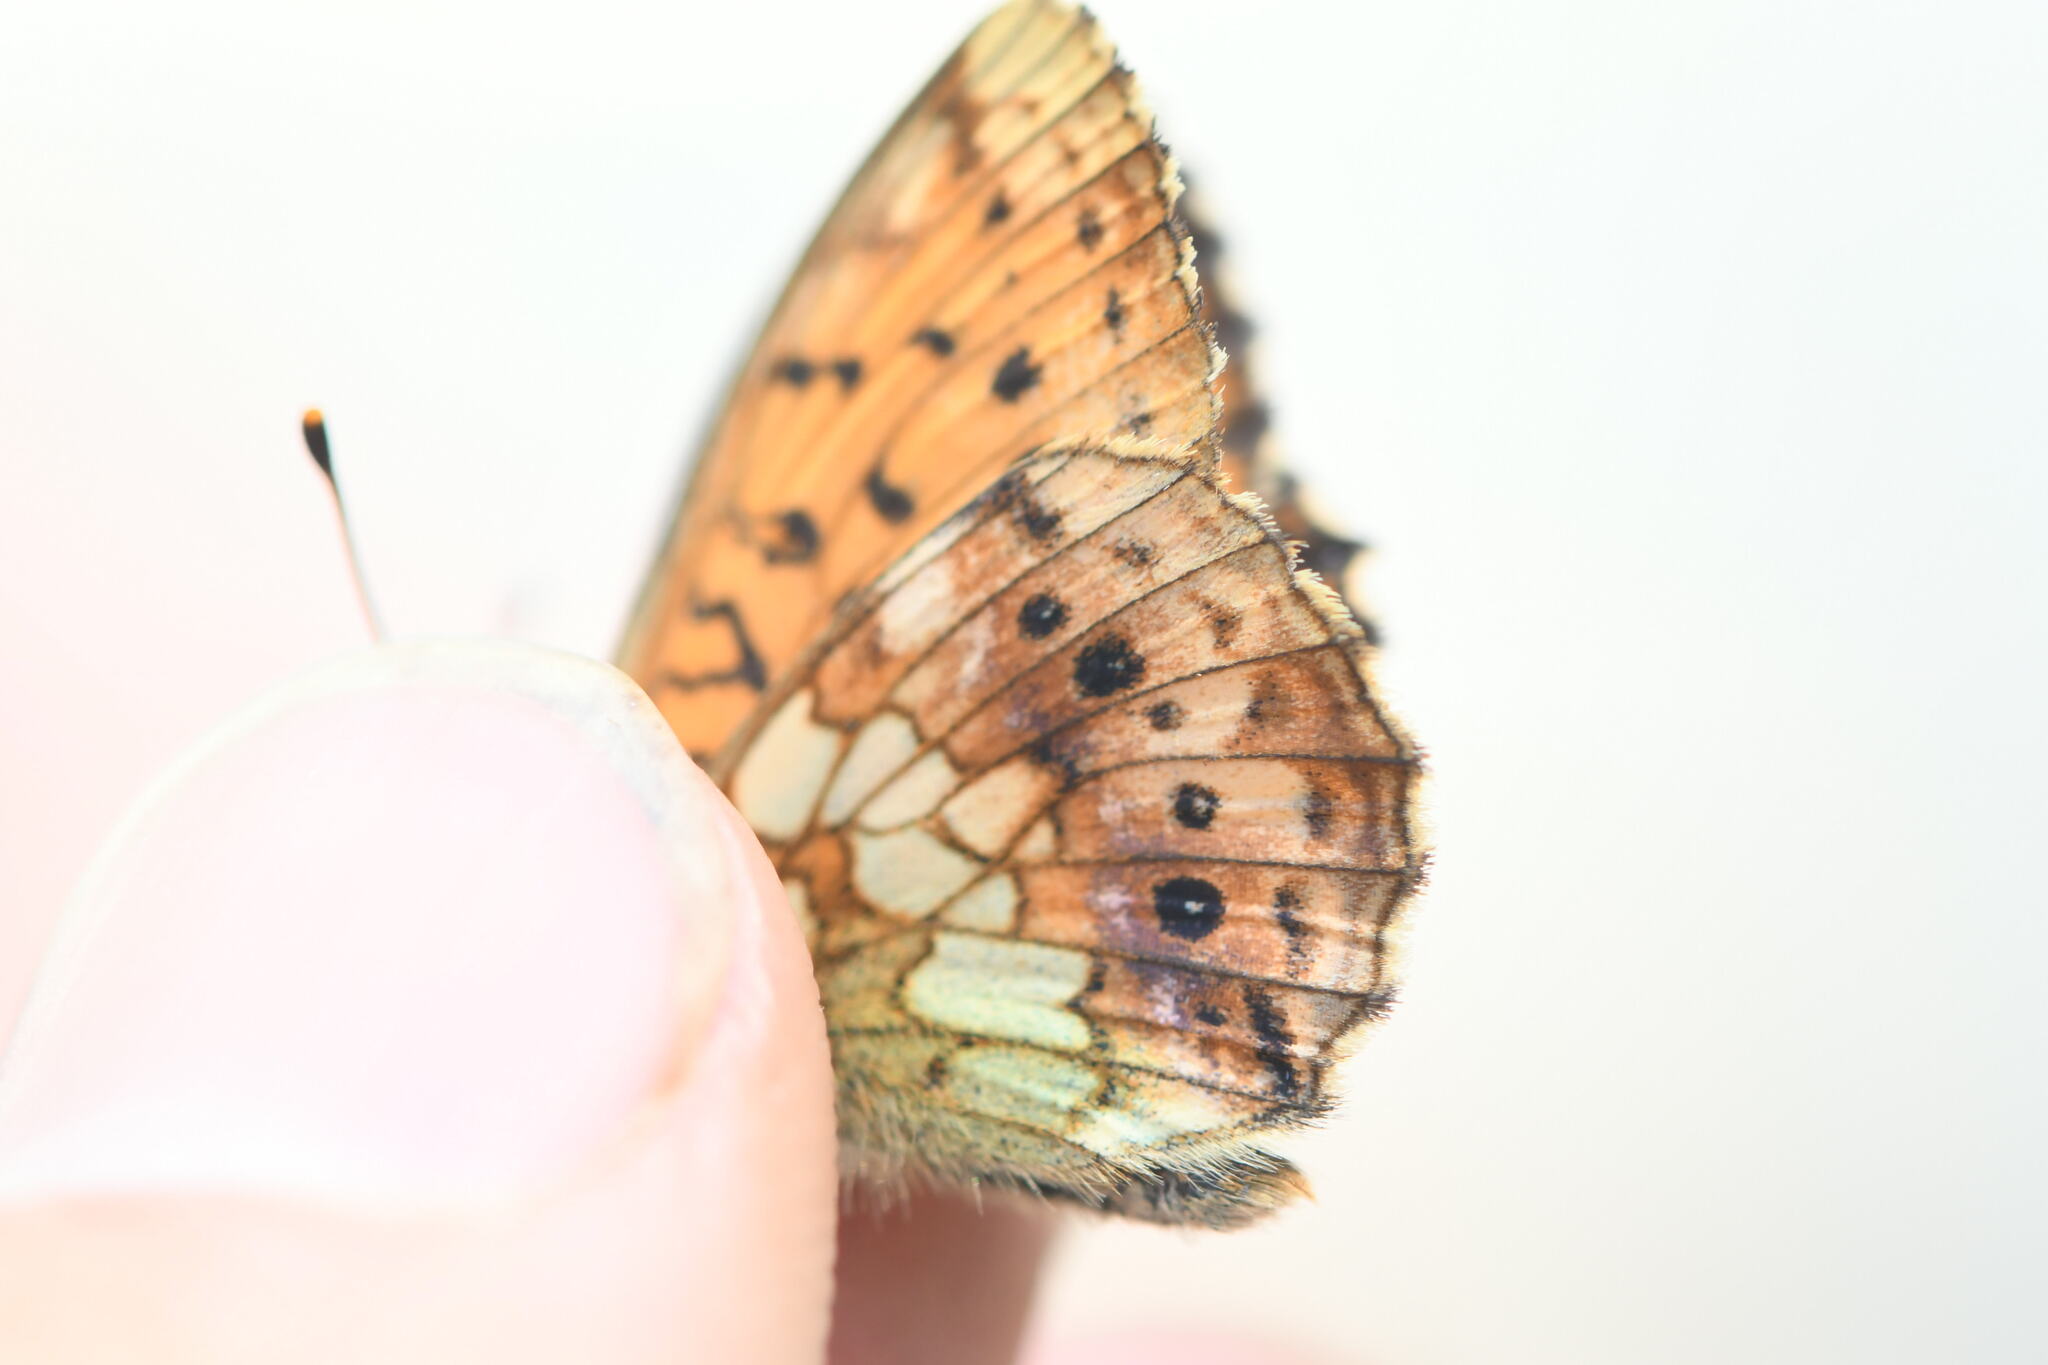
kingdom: Animalia
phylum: Arthropoda
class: Insecta
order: Lepidoptera
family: Nymphalidae
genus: Brenthis
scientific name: Brenthis ino
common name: Lesser marbled fritillary
